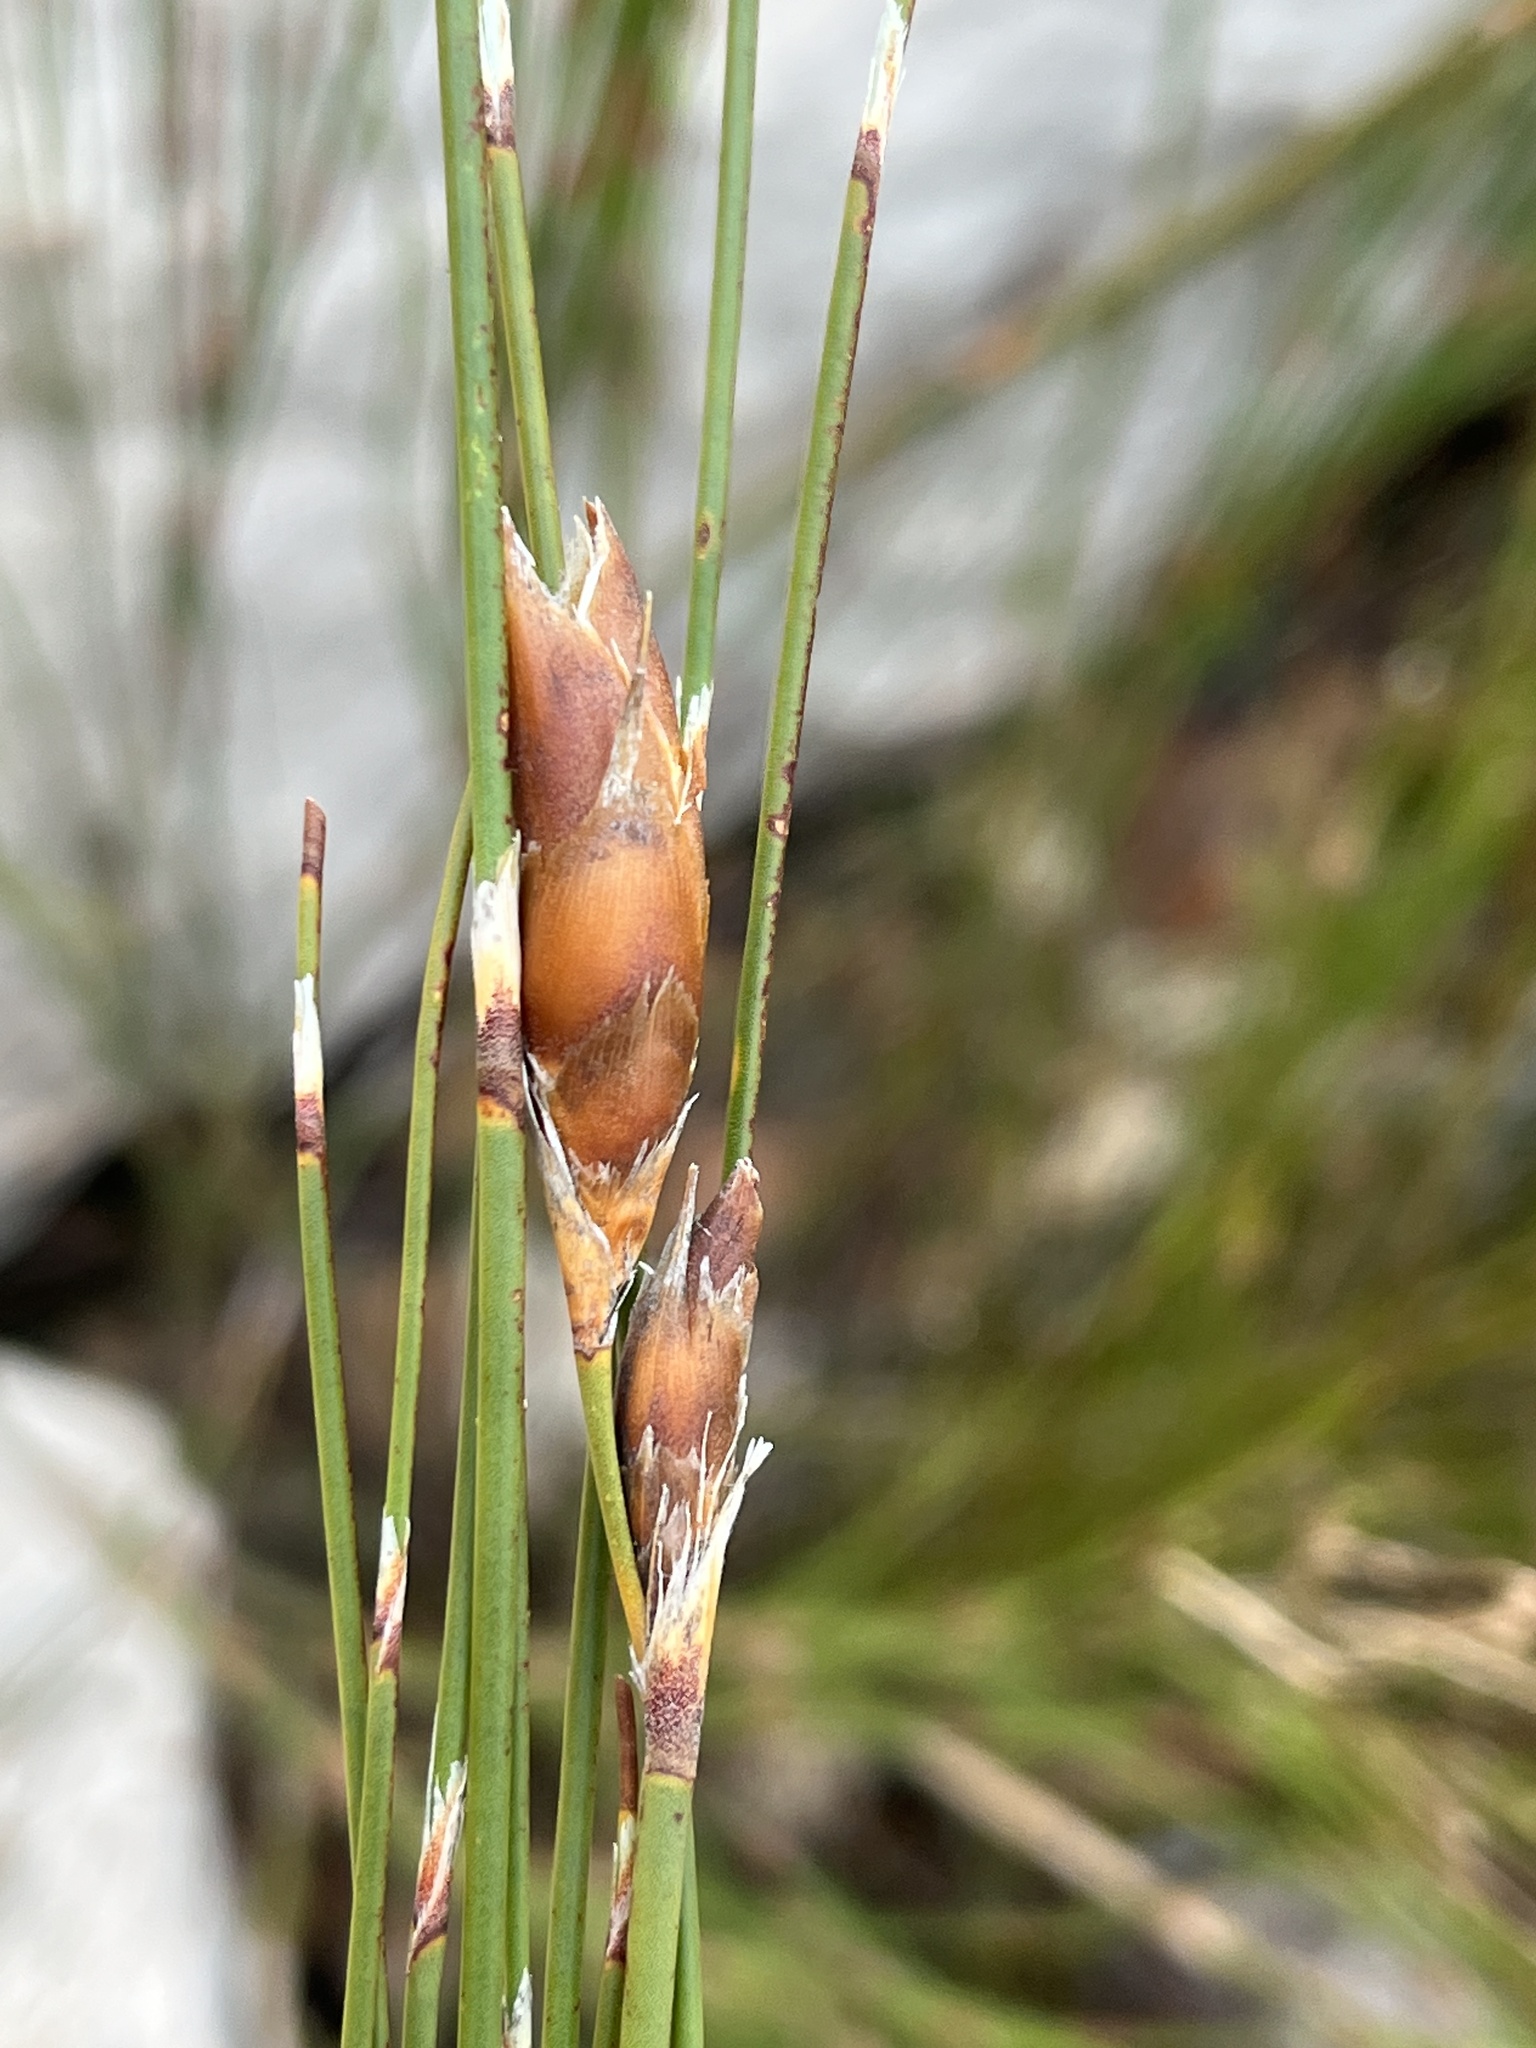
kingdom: Plantae
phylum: Tracheophyta
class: Liliopsida
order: Poales
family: Restionaceae
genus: Cannomois
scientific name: Cannomois robusta
